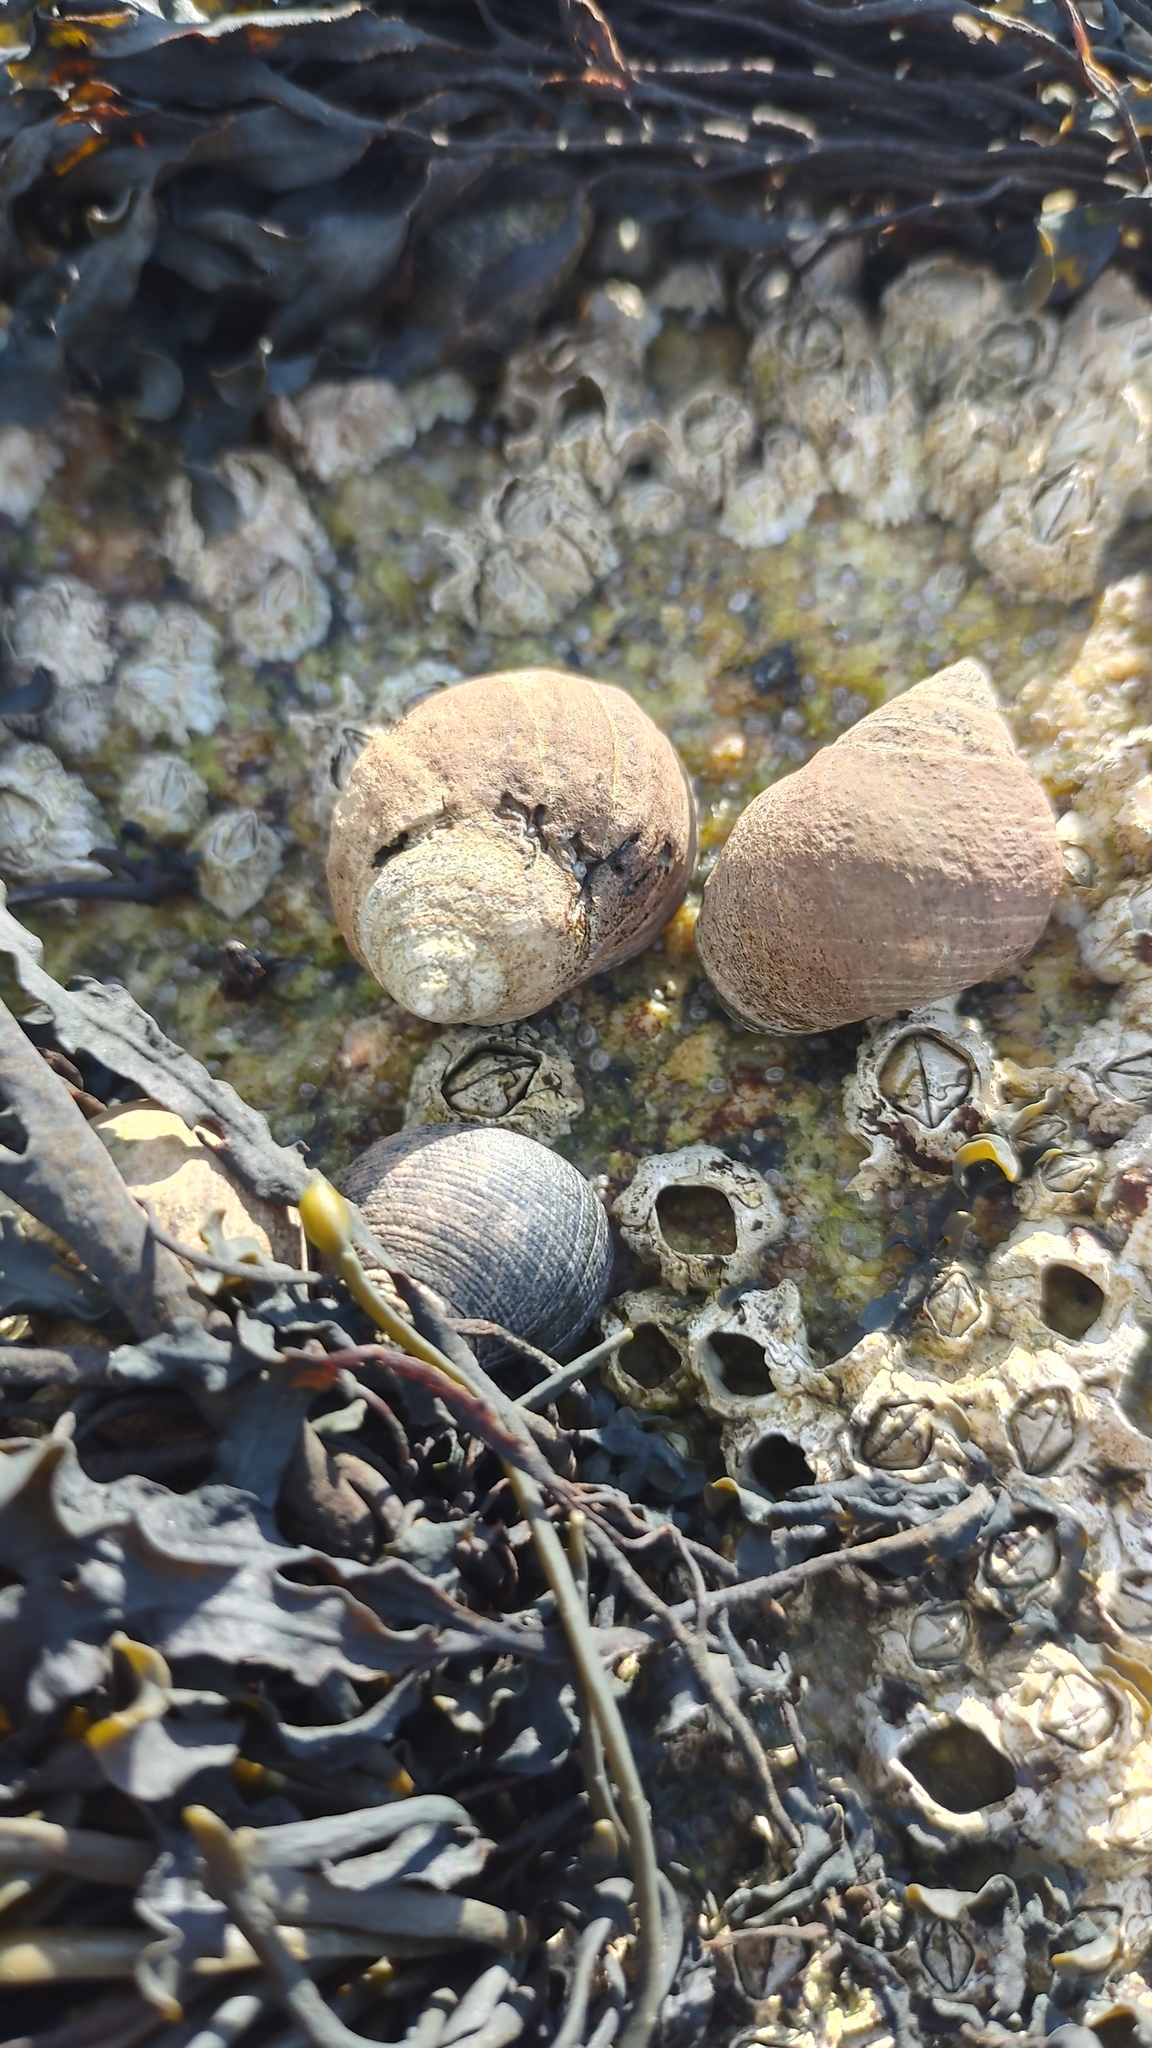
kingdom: Animalia
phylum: Mollusca
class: Gastropoda
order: Littorinimorpha
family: Littorinidae
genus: Littorina
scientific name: Littorina littorea
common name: Common periwinkle
